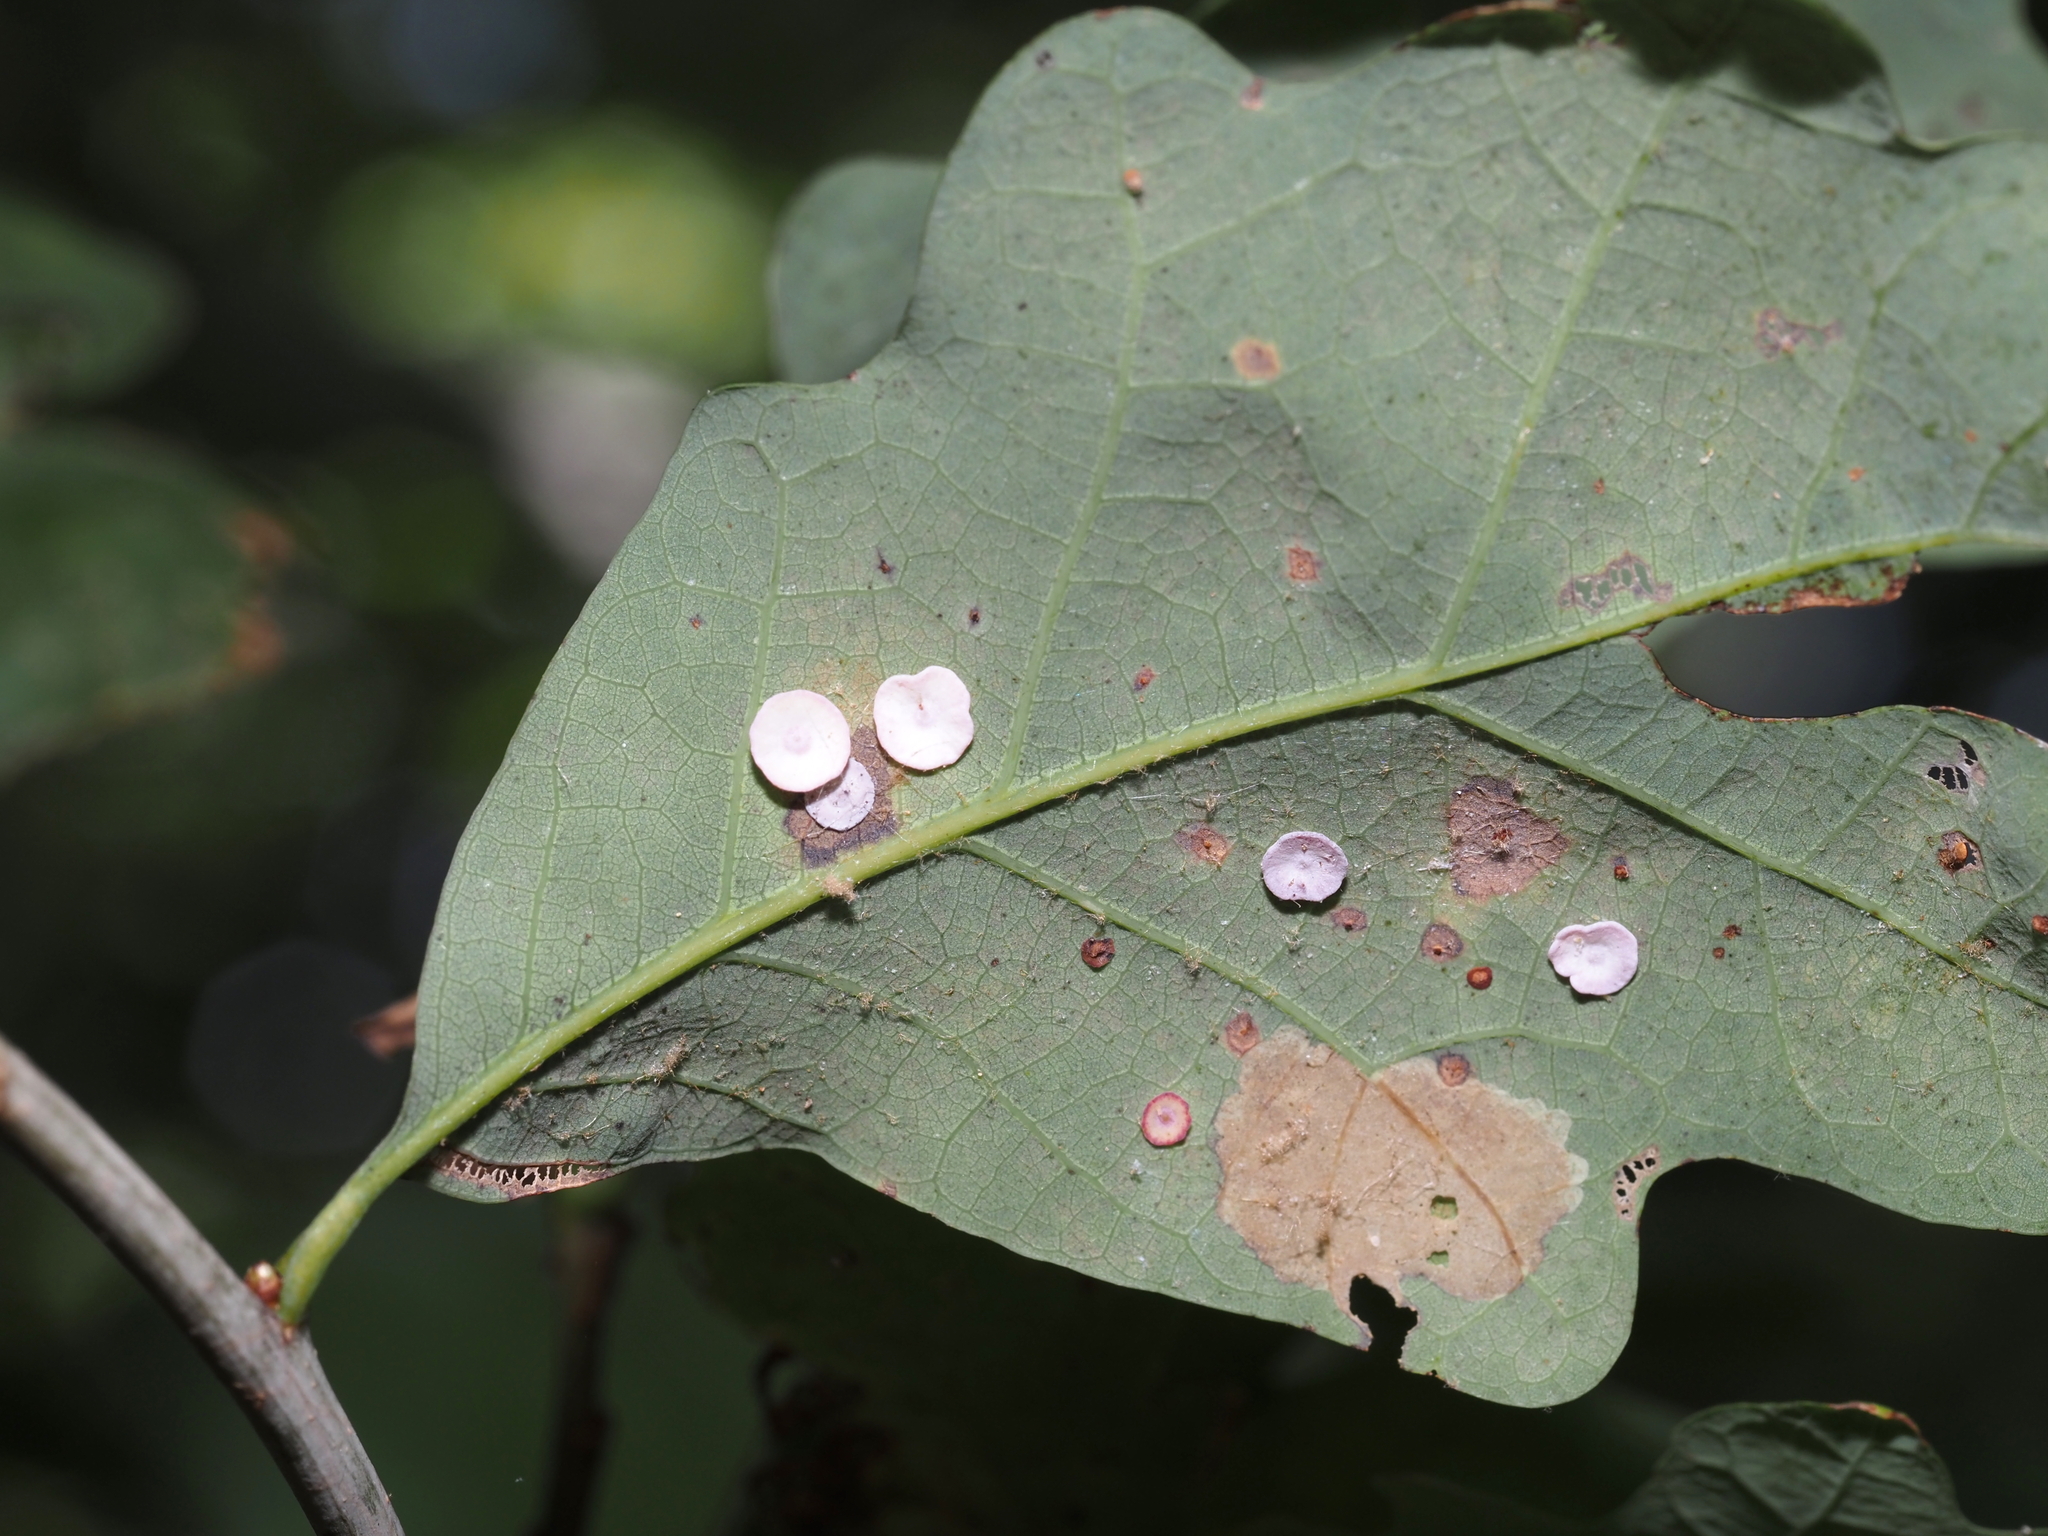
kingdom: Animalia
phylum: Arthropoda
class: Insecta
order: Hymenoptera
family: Cynipidae
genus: Phylloteras
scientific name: Phylloteras poculum
